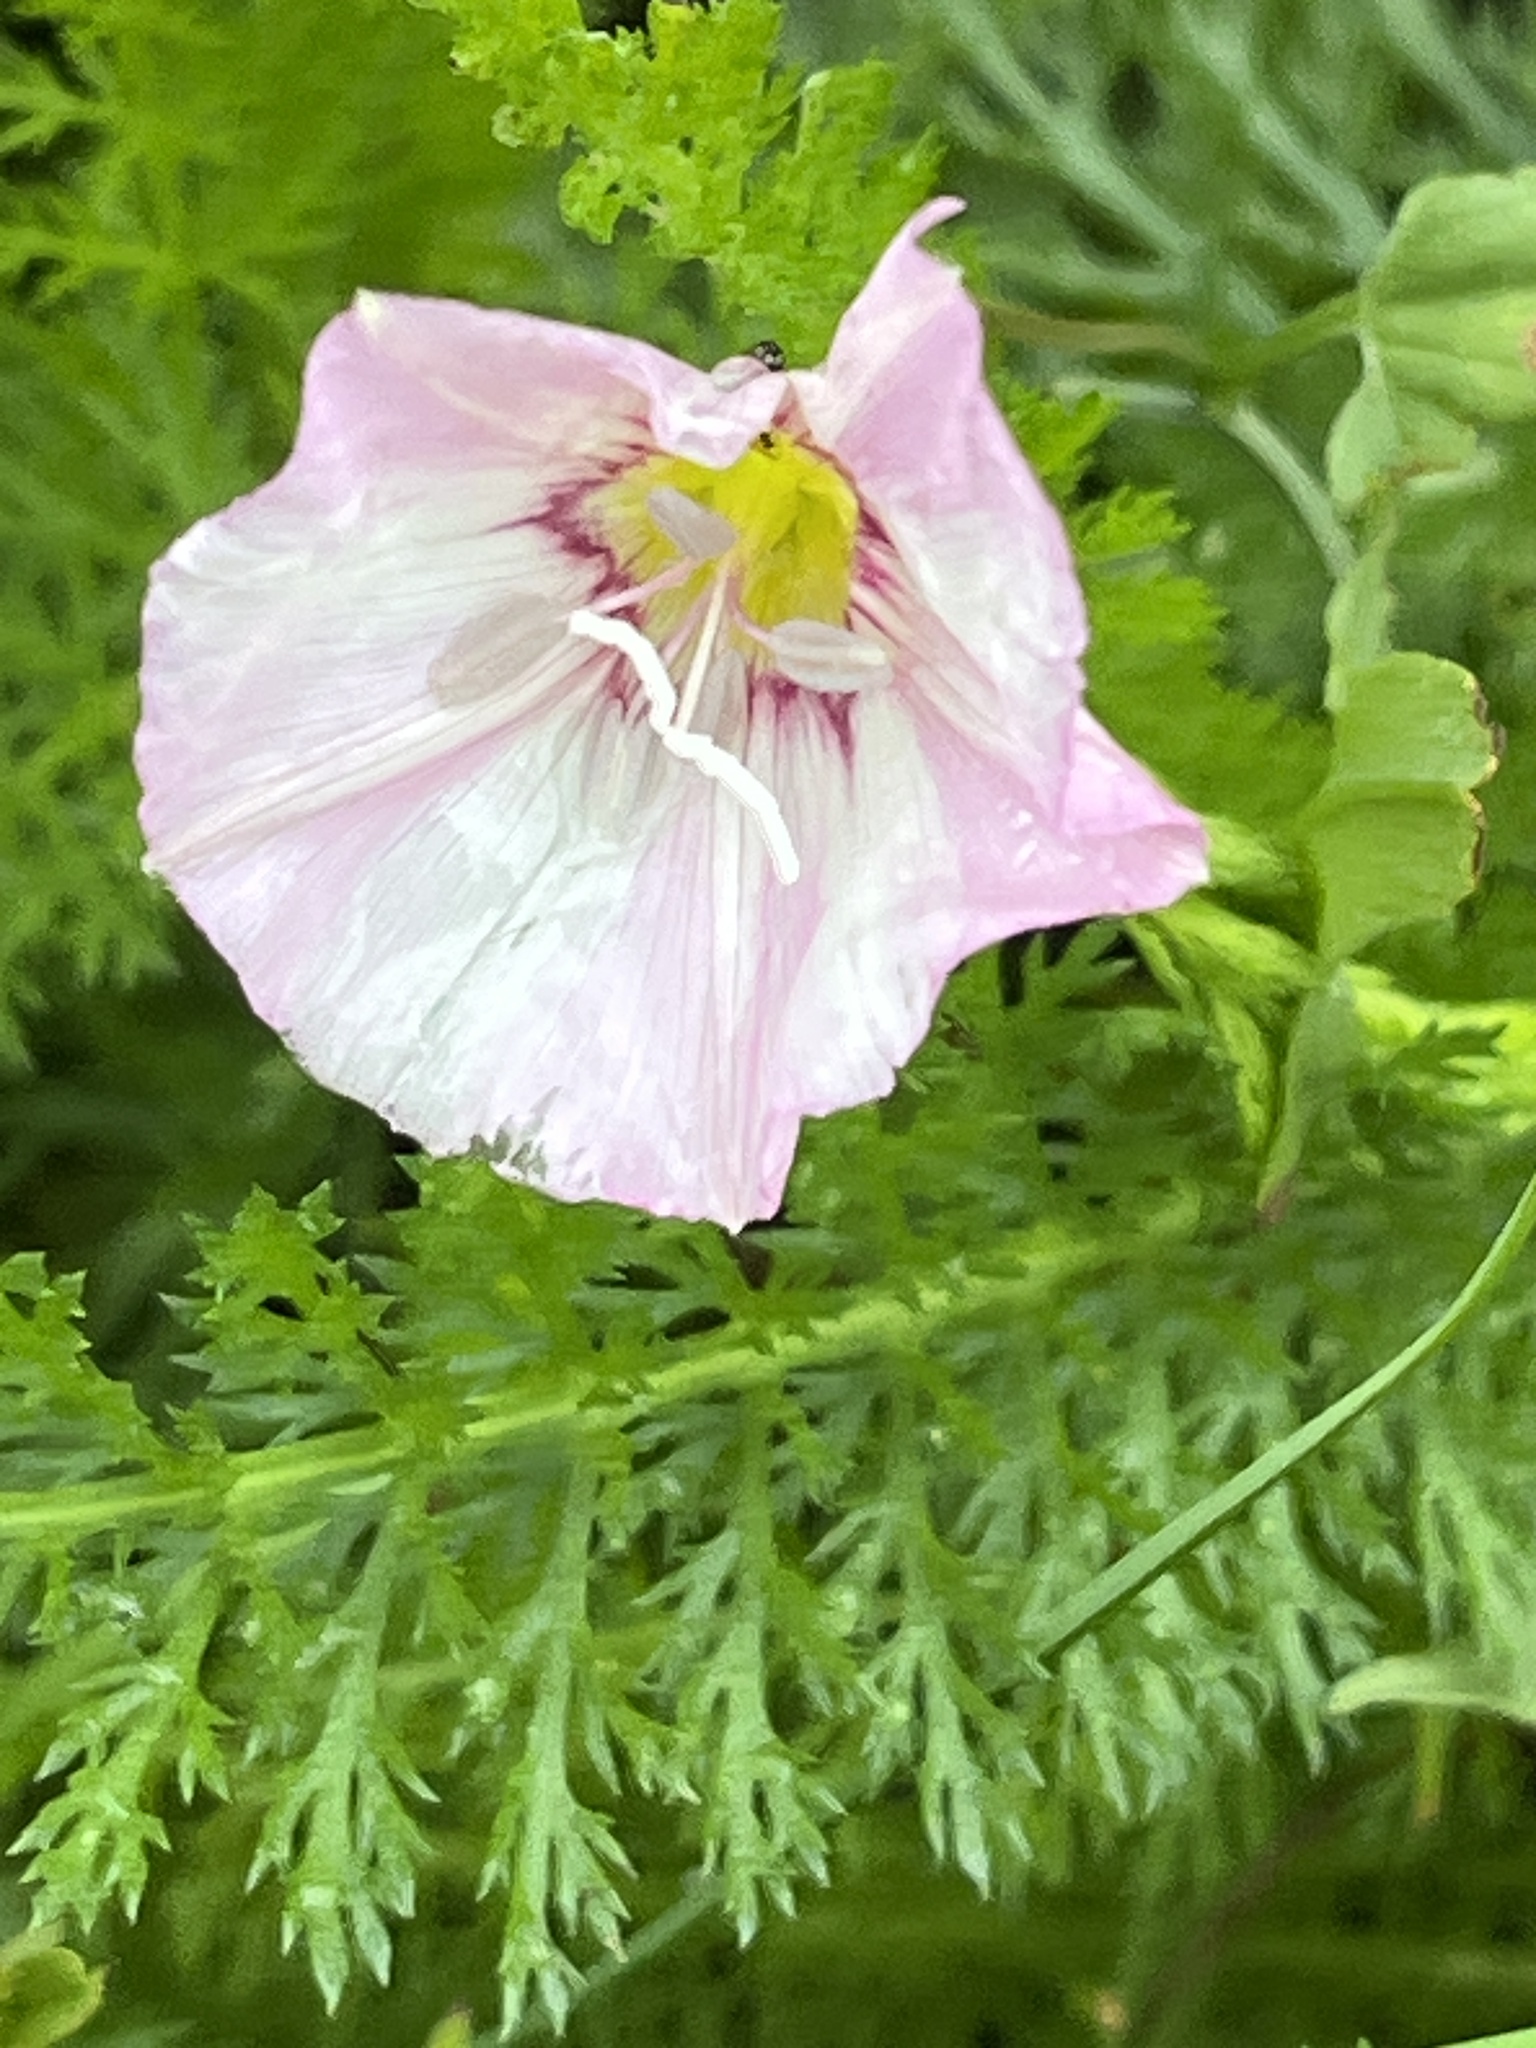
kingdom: Plantae
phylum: Tracheophyta
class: Magnoliopsida
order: Solanales
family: Convolvulaceae
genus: Convolvulus
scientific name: Convolvulus arvensis
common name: Field bindweed
